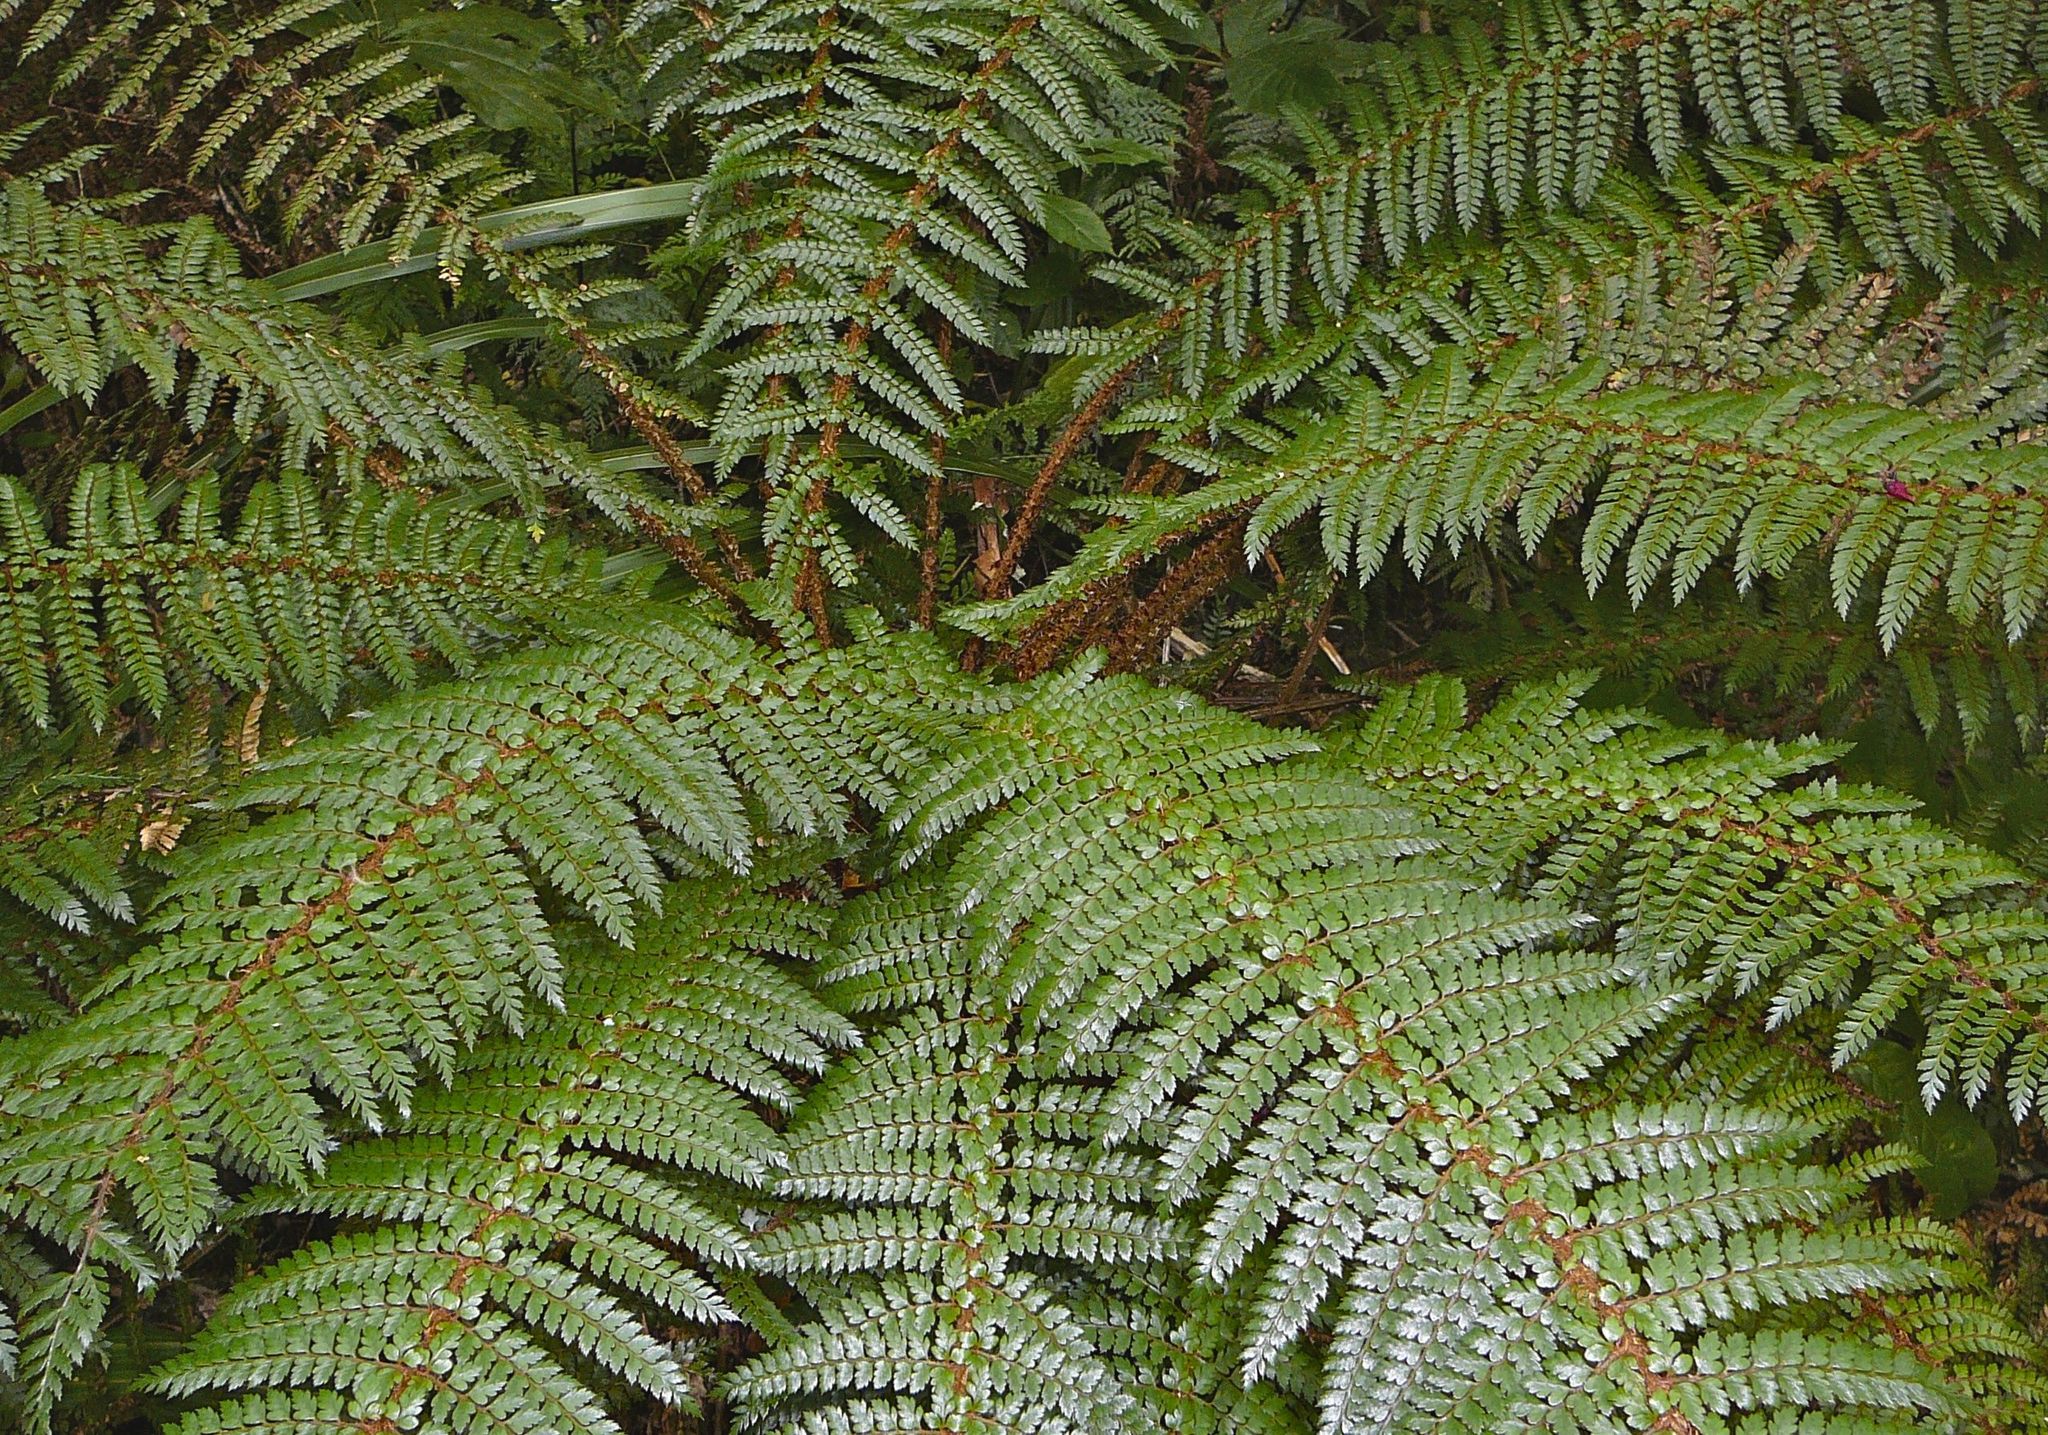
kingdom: Plantae
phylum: Tracheophyta
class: Polypodiopsida
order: Polypodiales
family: Dryopteridaceae
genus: Polystichum
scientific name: Polystichum vestitum
